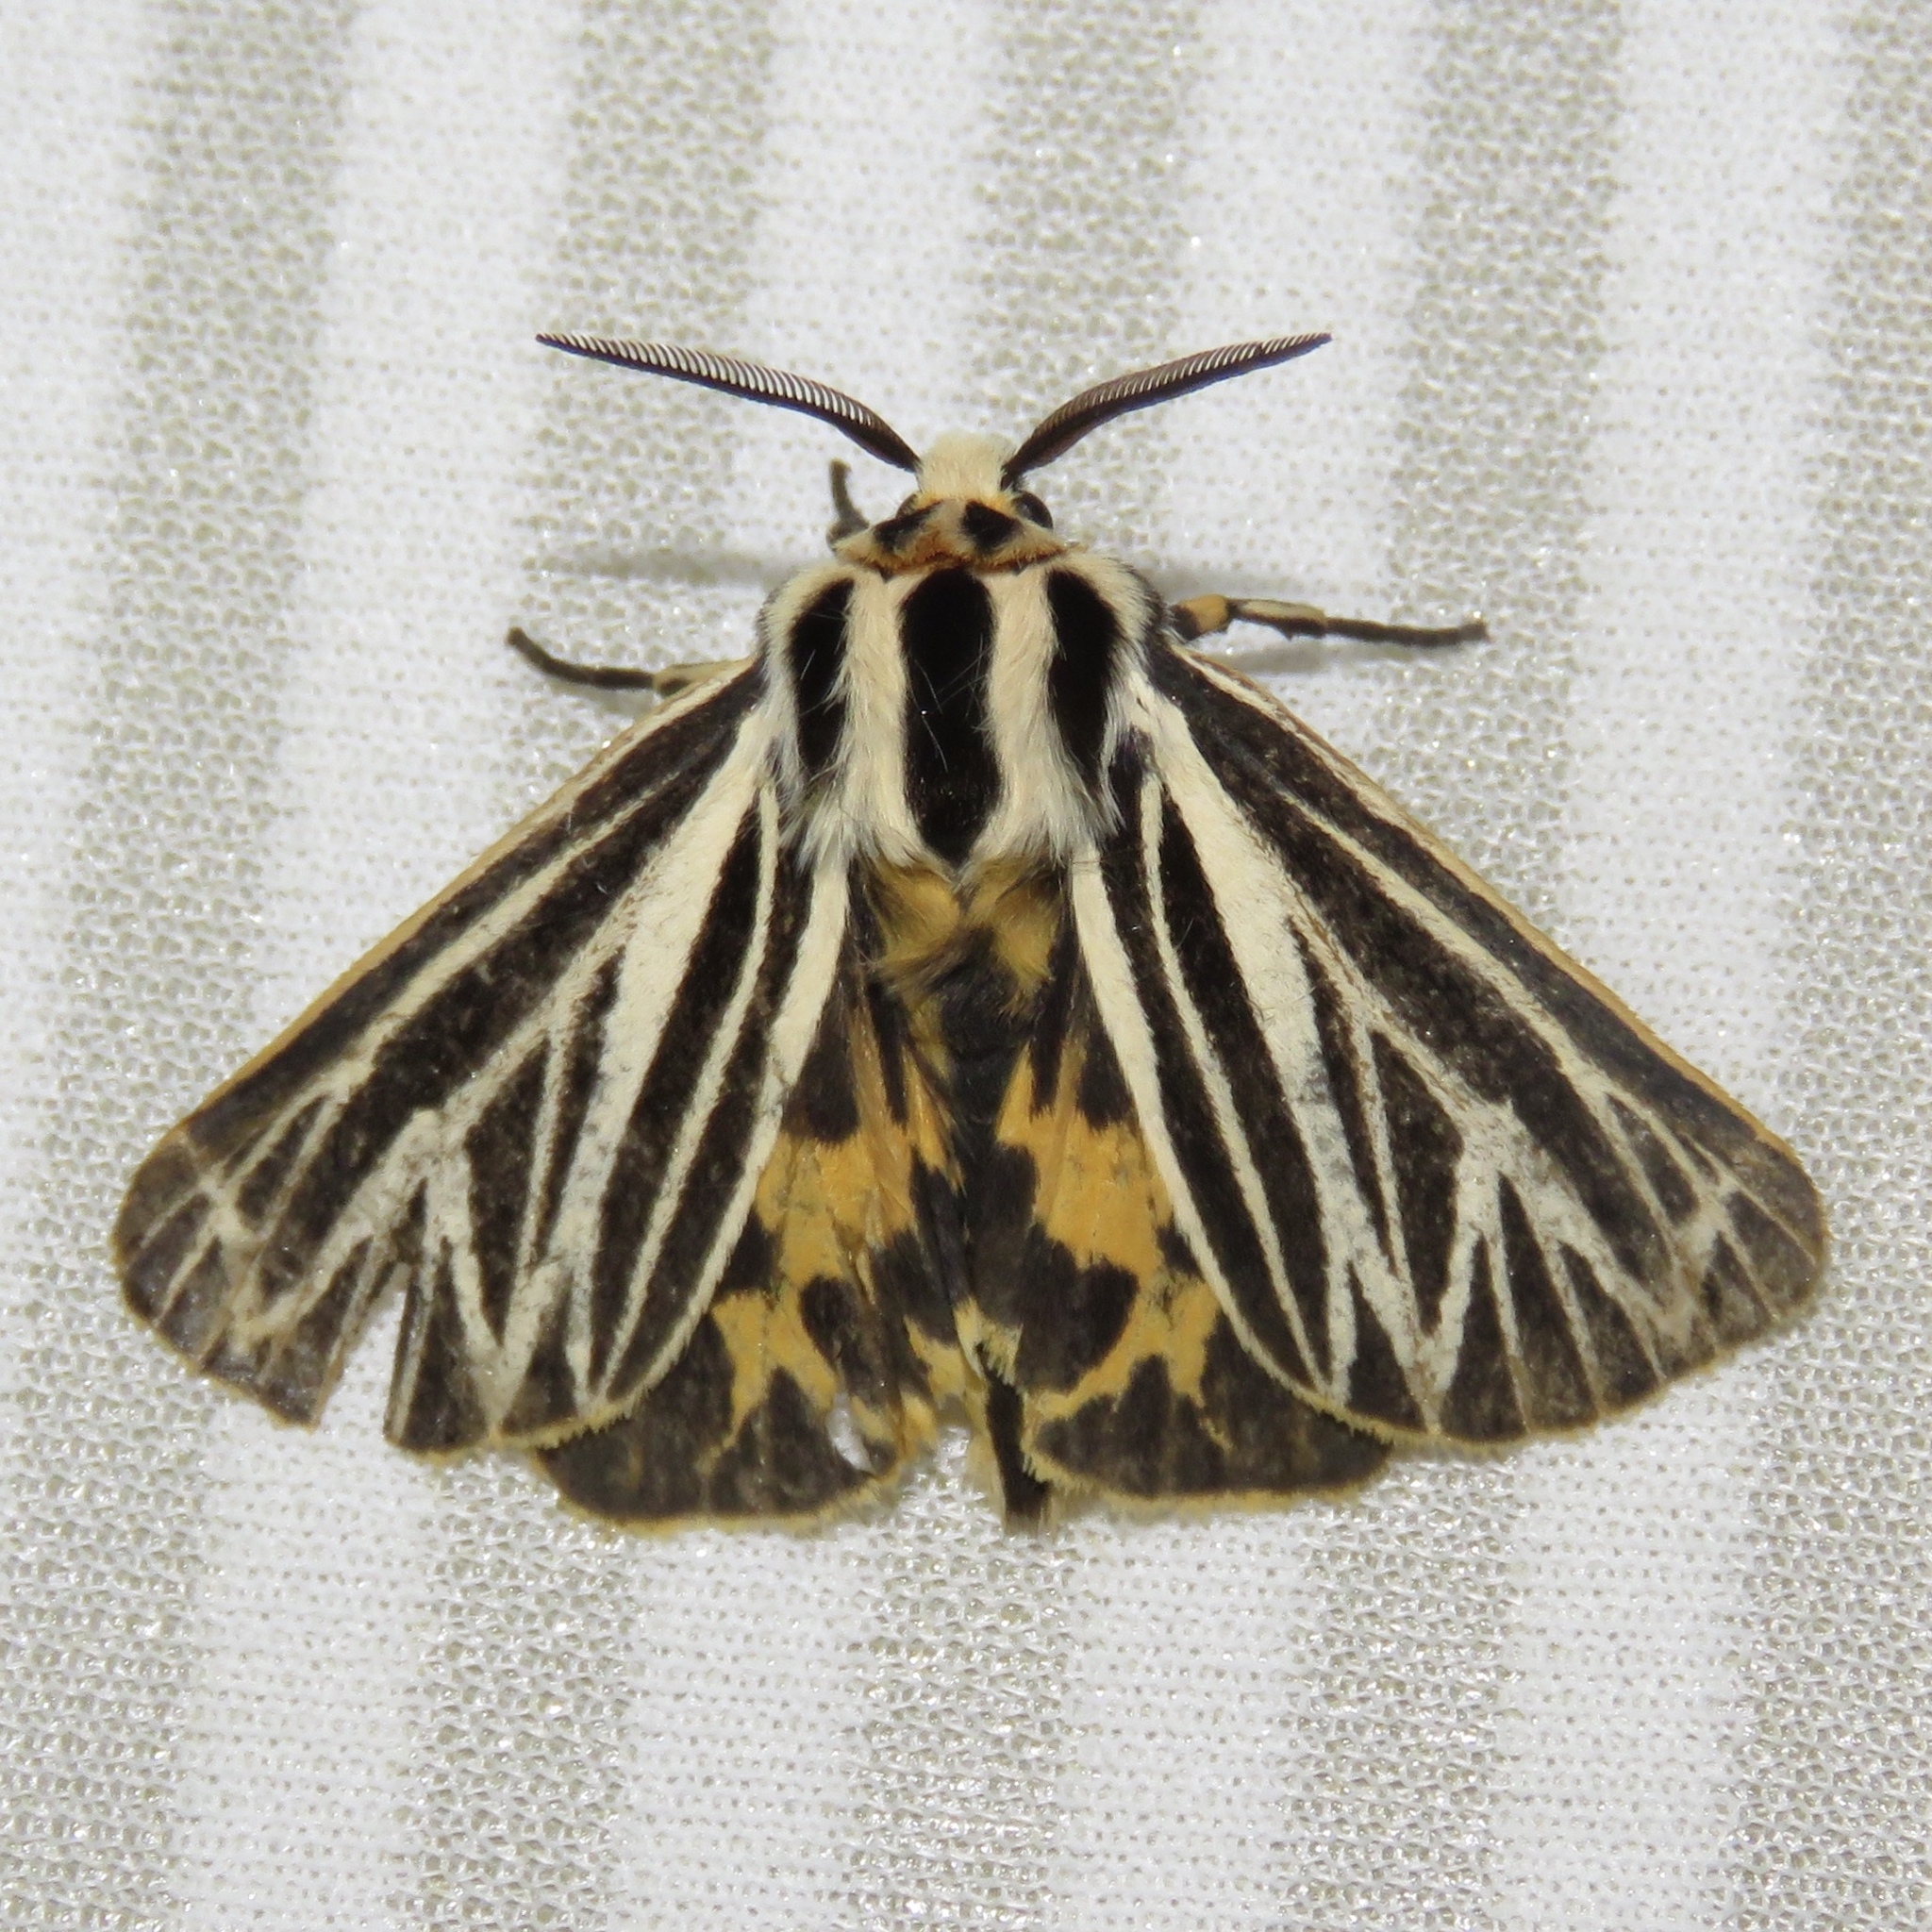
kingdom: Animalia
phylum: Arthropoda
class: Insecta
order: Lepidoptera
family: Erebidae
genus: Grammia
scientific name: Grammia virguncula
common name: Little tiger moth
